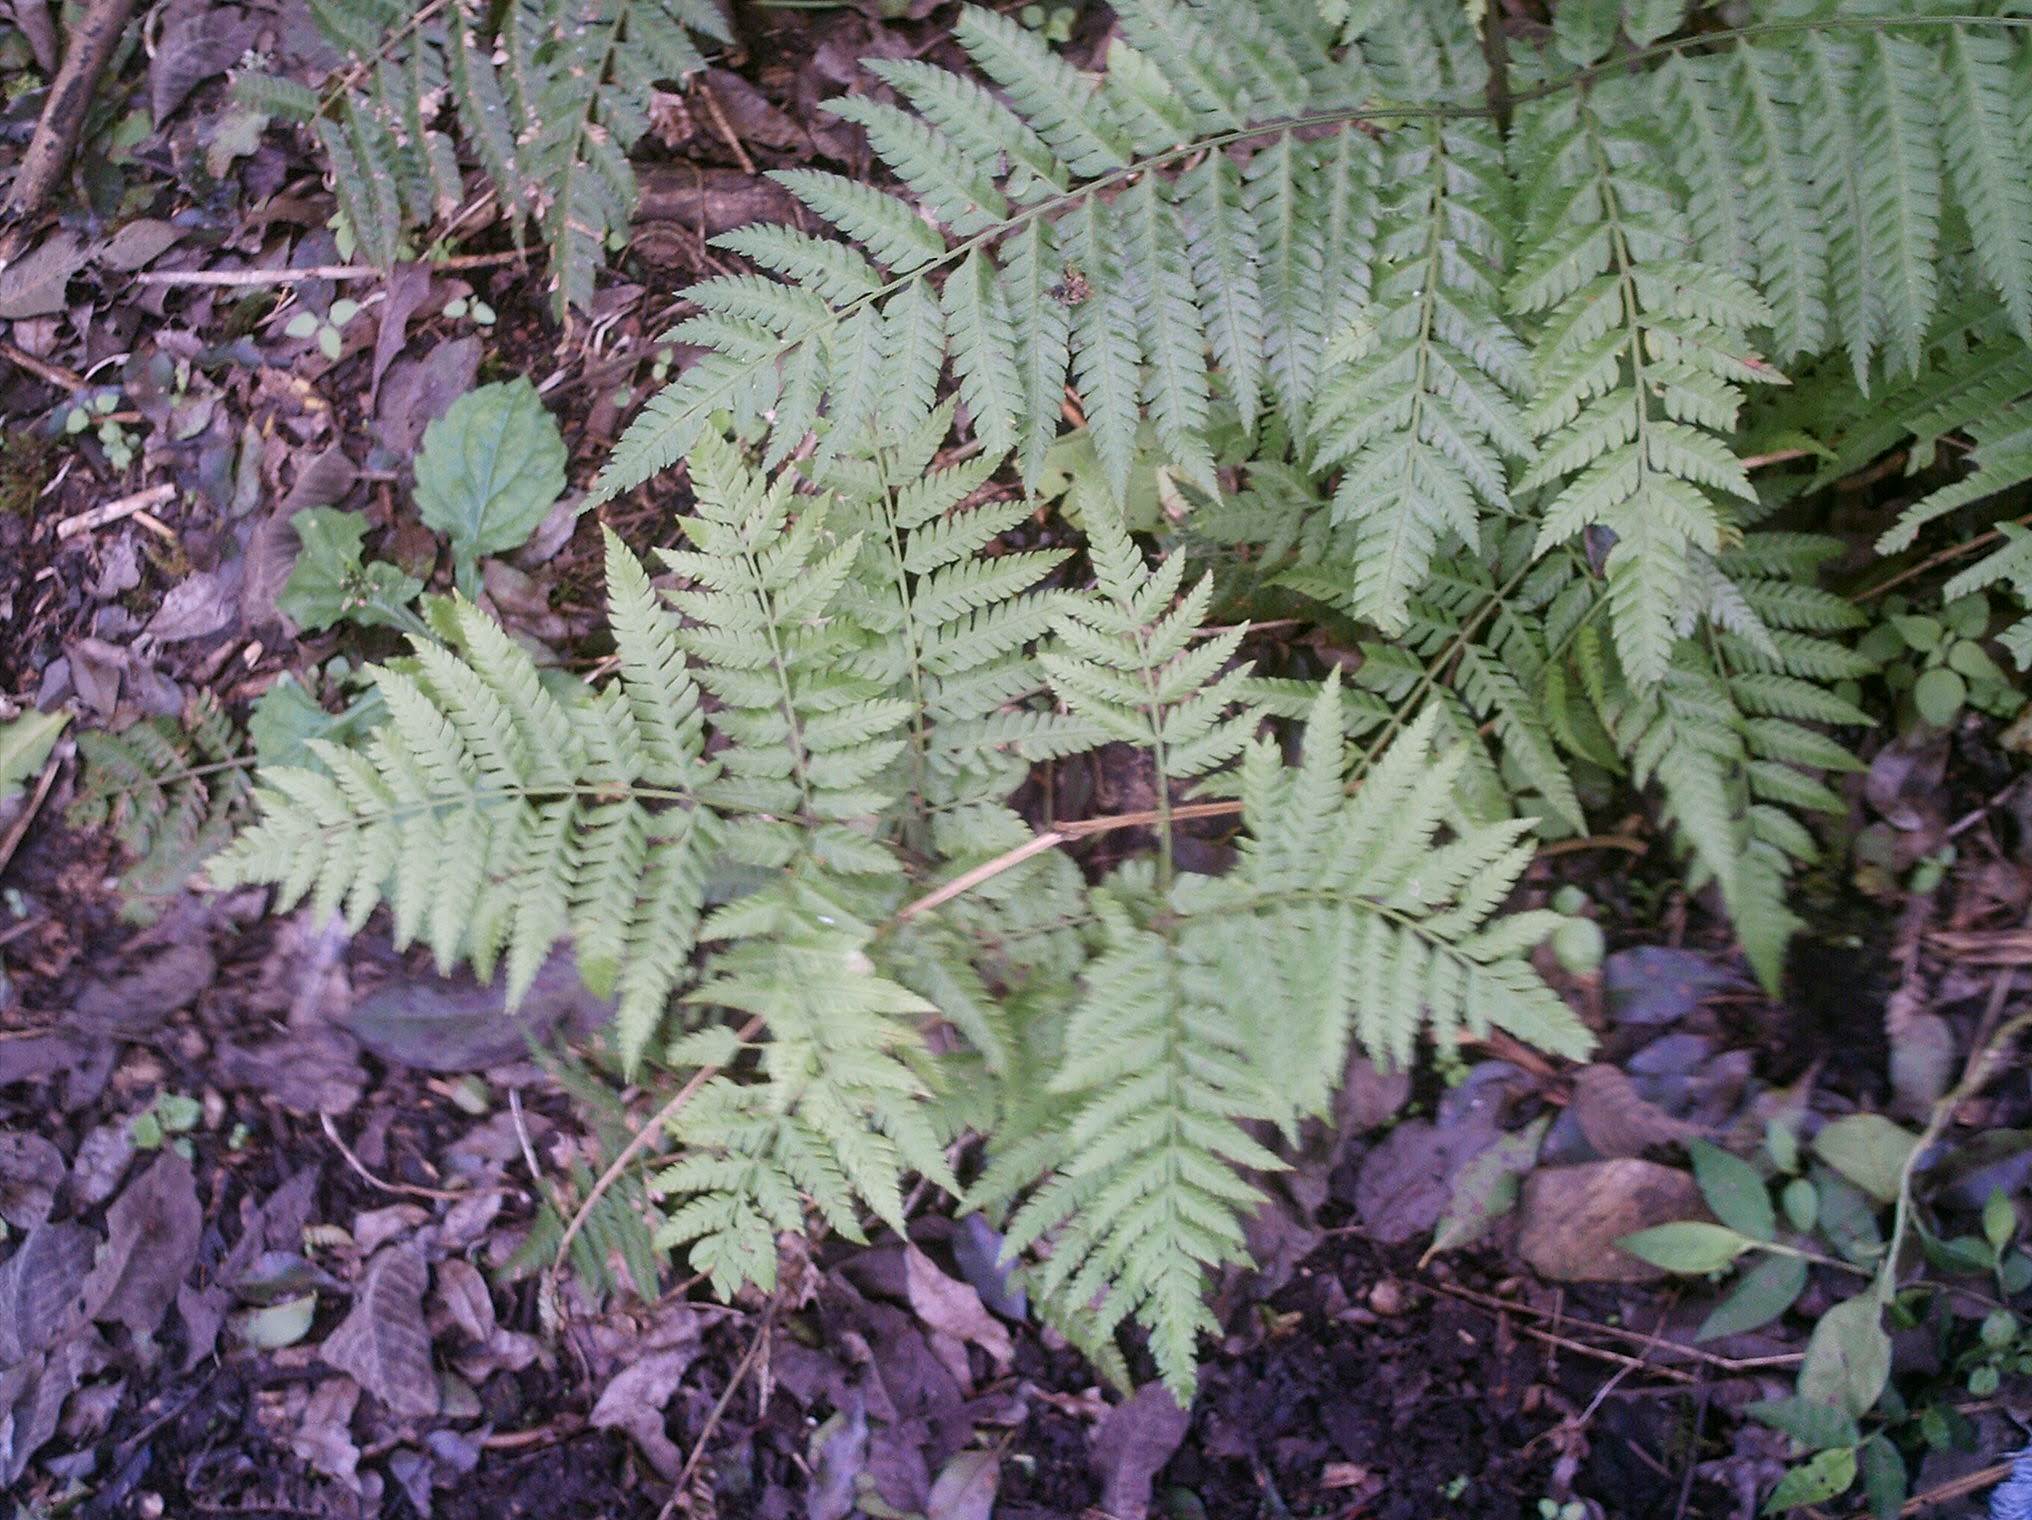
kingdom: Plantae
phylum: Tracheophyta
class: Polypodiopsida
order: Polypodiales
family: Pteridaceae
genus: Pteris
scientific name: Pteris deflexa
